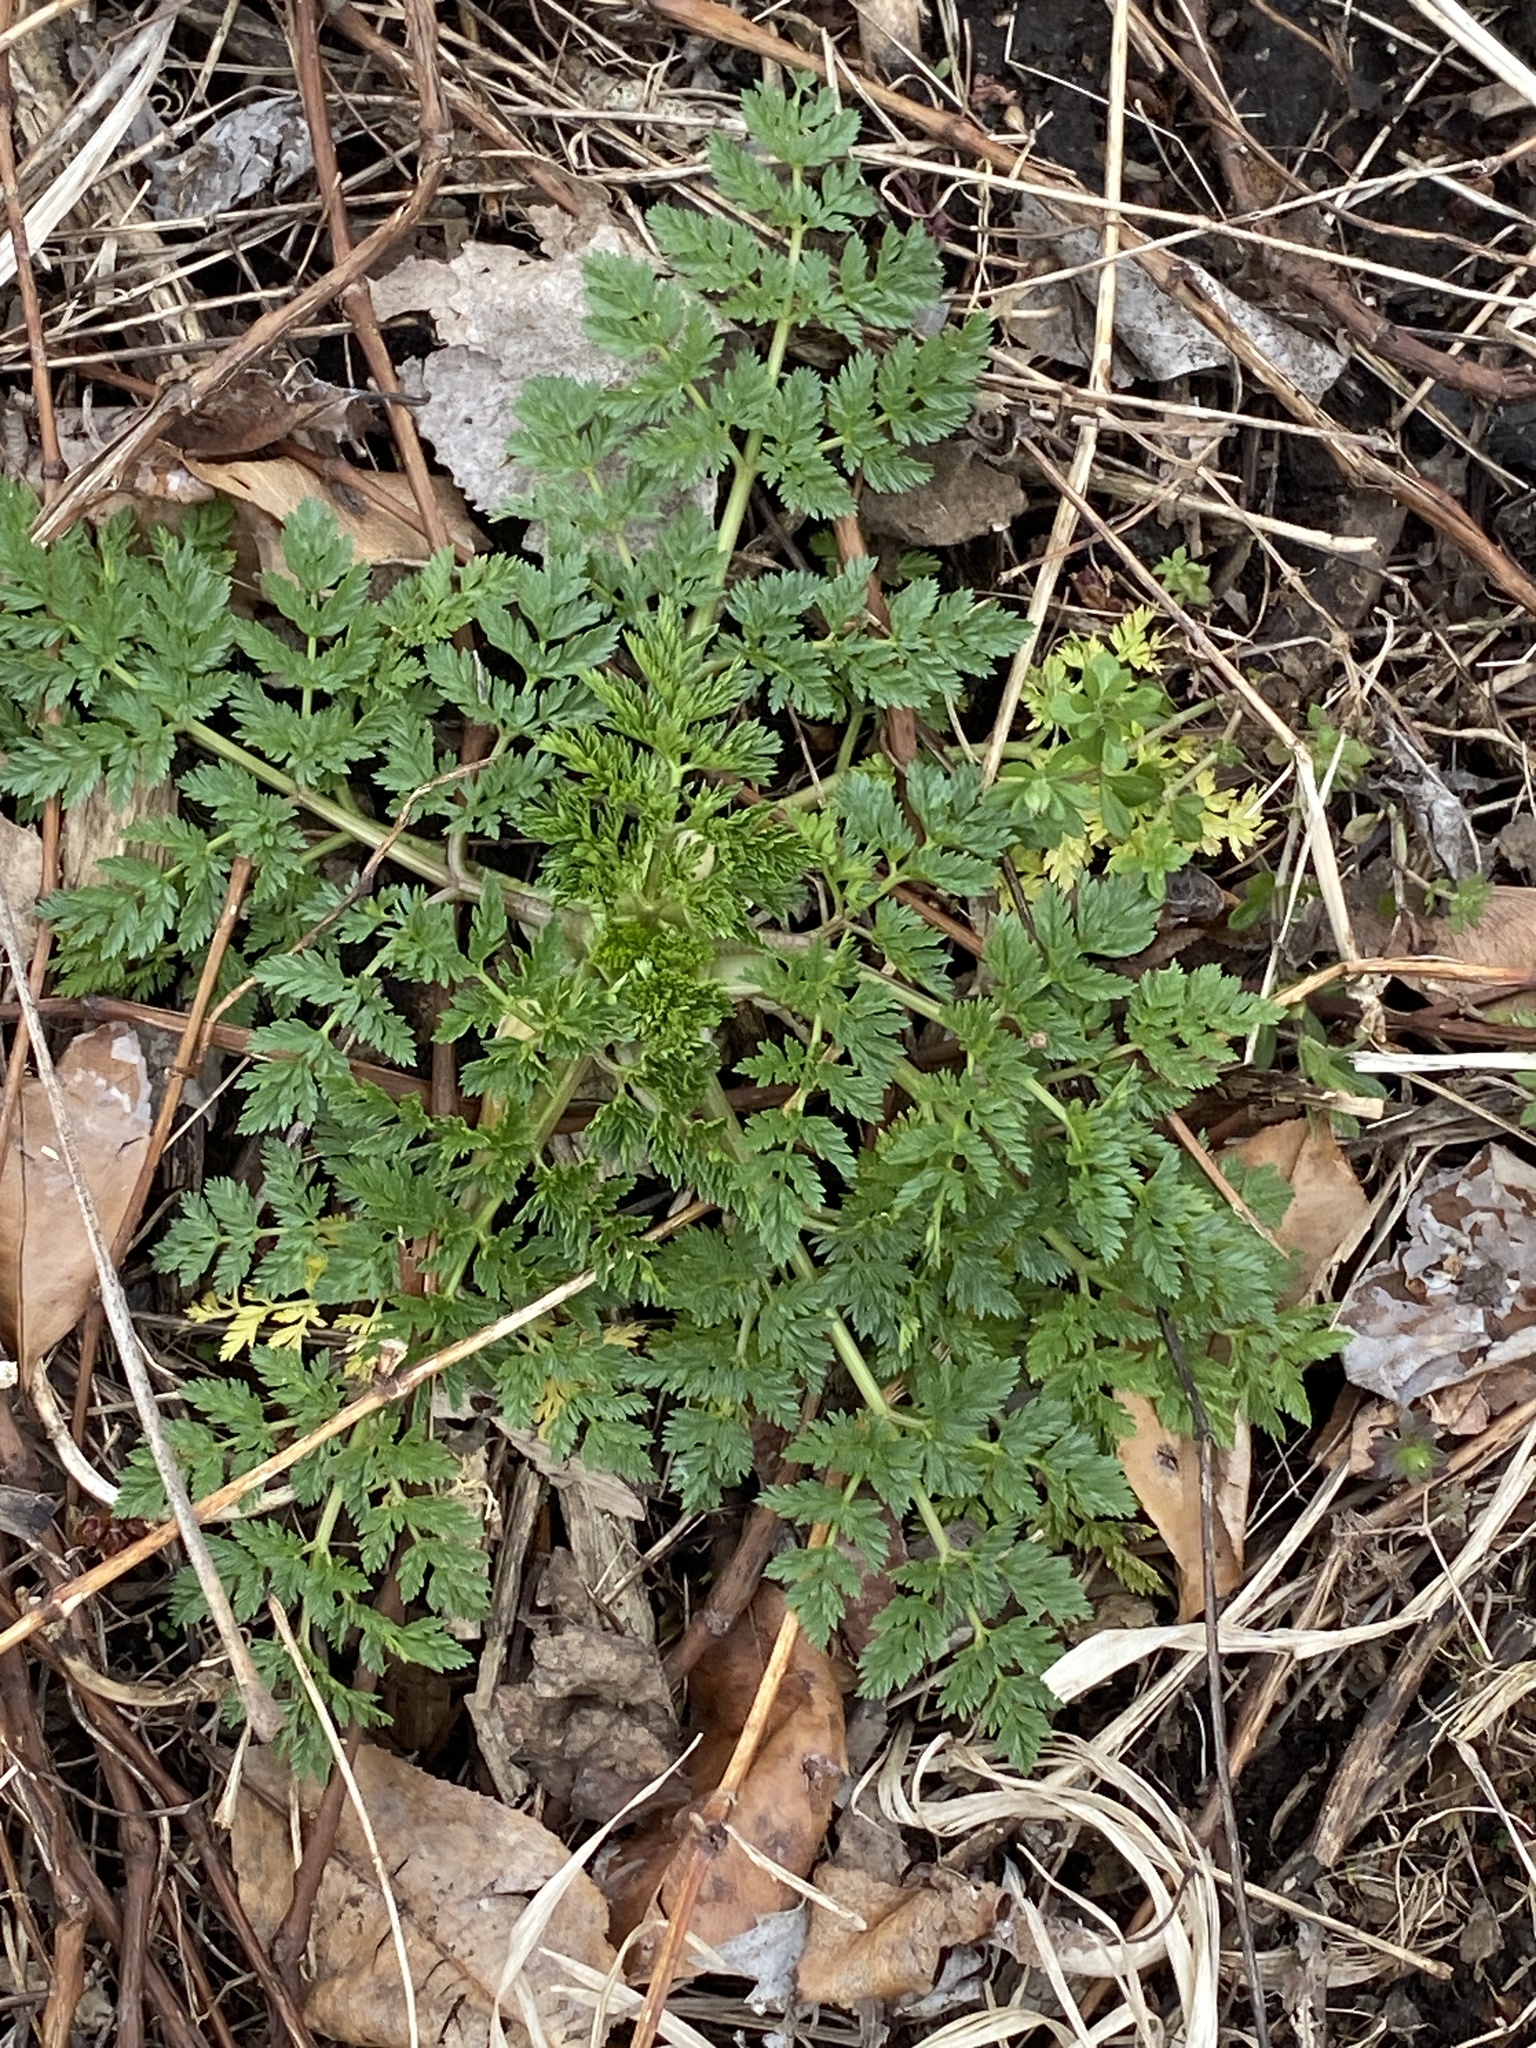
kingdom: Plantae
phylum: Tracheophyta
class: Magnoliopsida
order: Apiales
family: Apiaceae
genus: Conium
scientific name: Conium maculatum
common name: Hemlock
